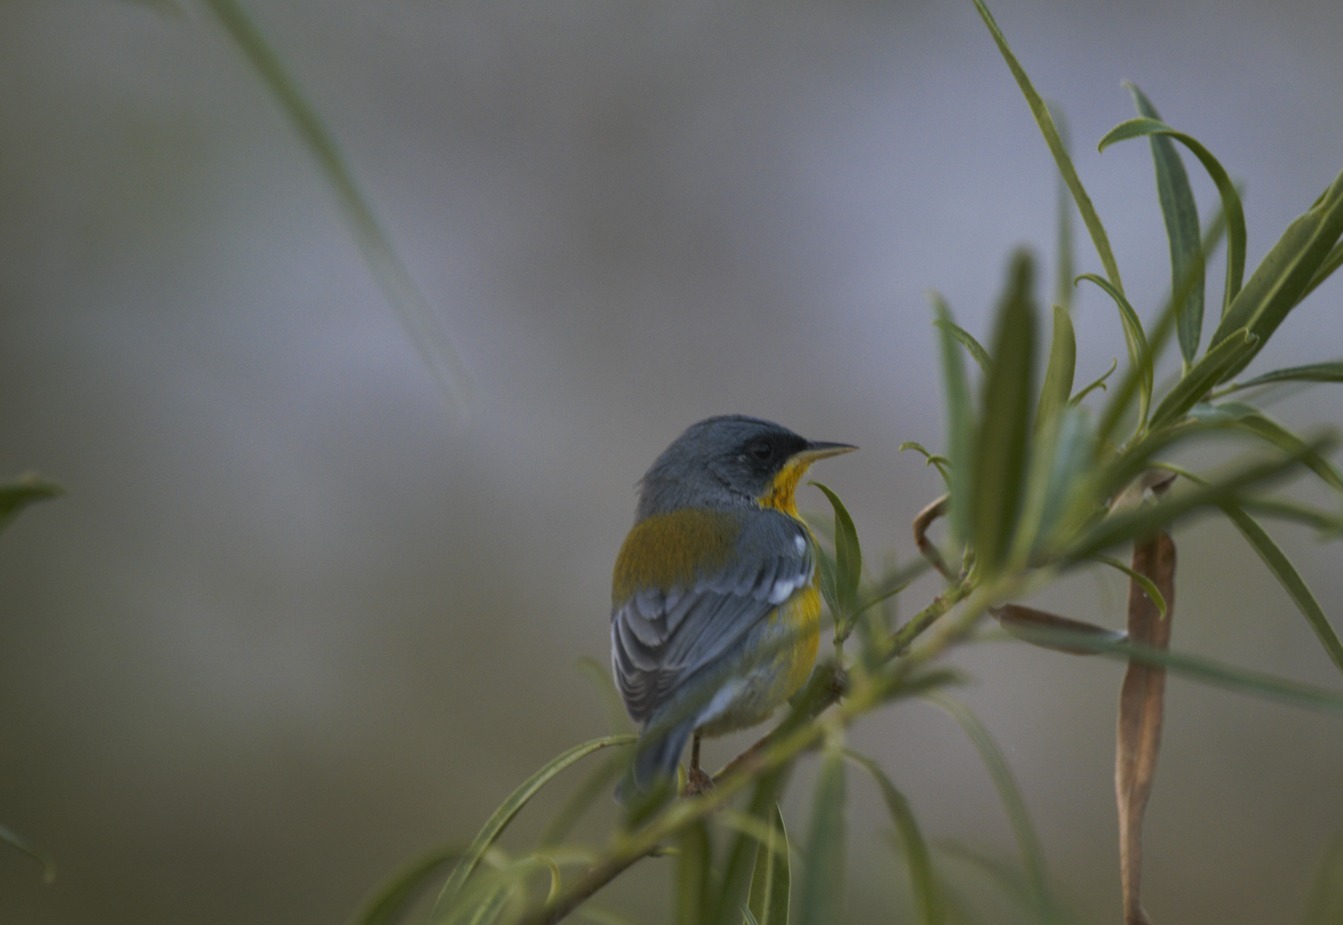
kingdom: Animalia
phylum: Chordata
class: Aves
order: Passeriformes
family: Parulidae
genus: Setophaga
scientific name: Setophaga pitiayumi
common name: Tropical parula
